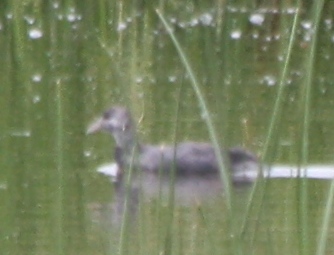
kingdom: Animalia
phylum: Chordata
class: Aves
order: Gruiformes
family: Rallidae
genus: Fulica
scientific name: Fulica ardesiaca
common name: Andean coot
